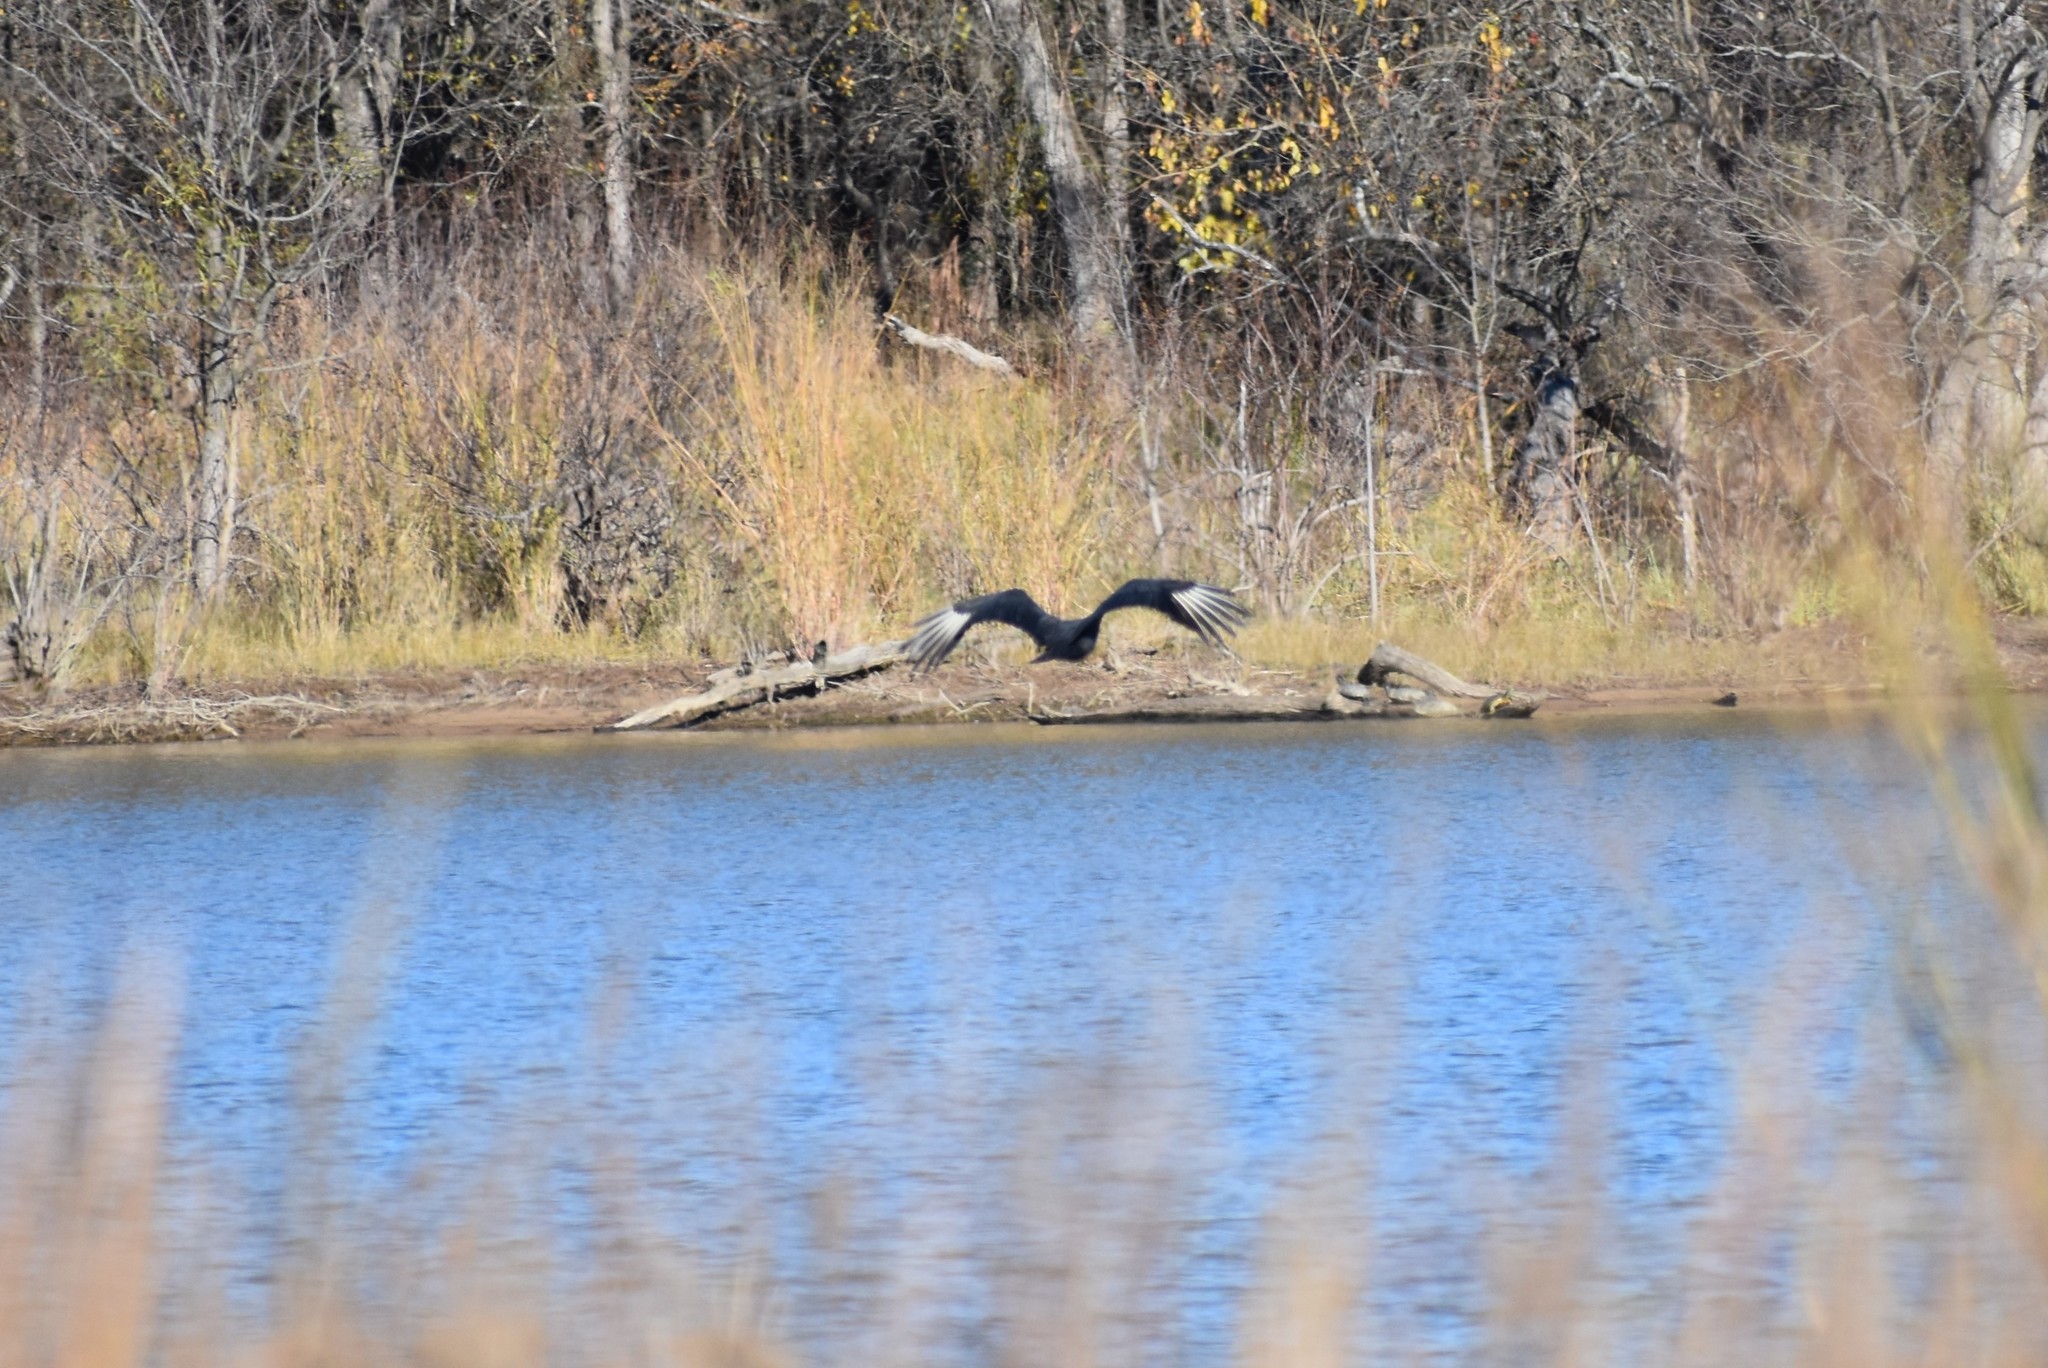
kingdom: Animalia
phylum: Chordata
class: Aves
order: Accipitriformes
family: Cathartidae
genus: Coragyps
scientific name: Coragyps atratus
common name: Black vulture
